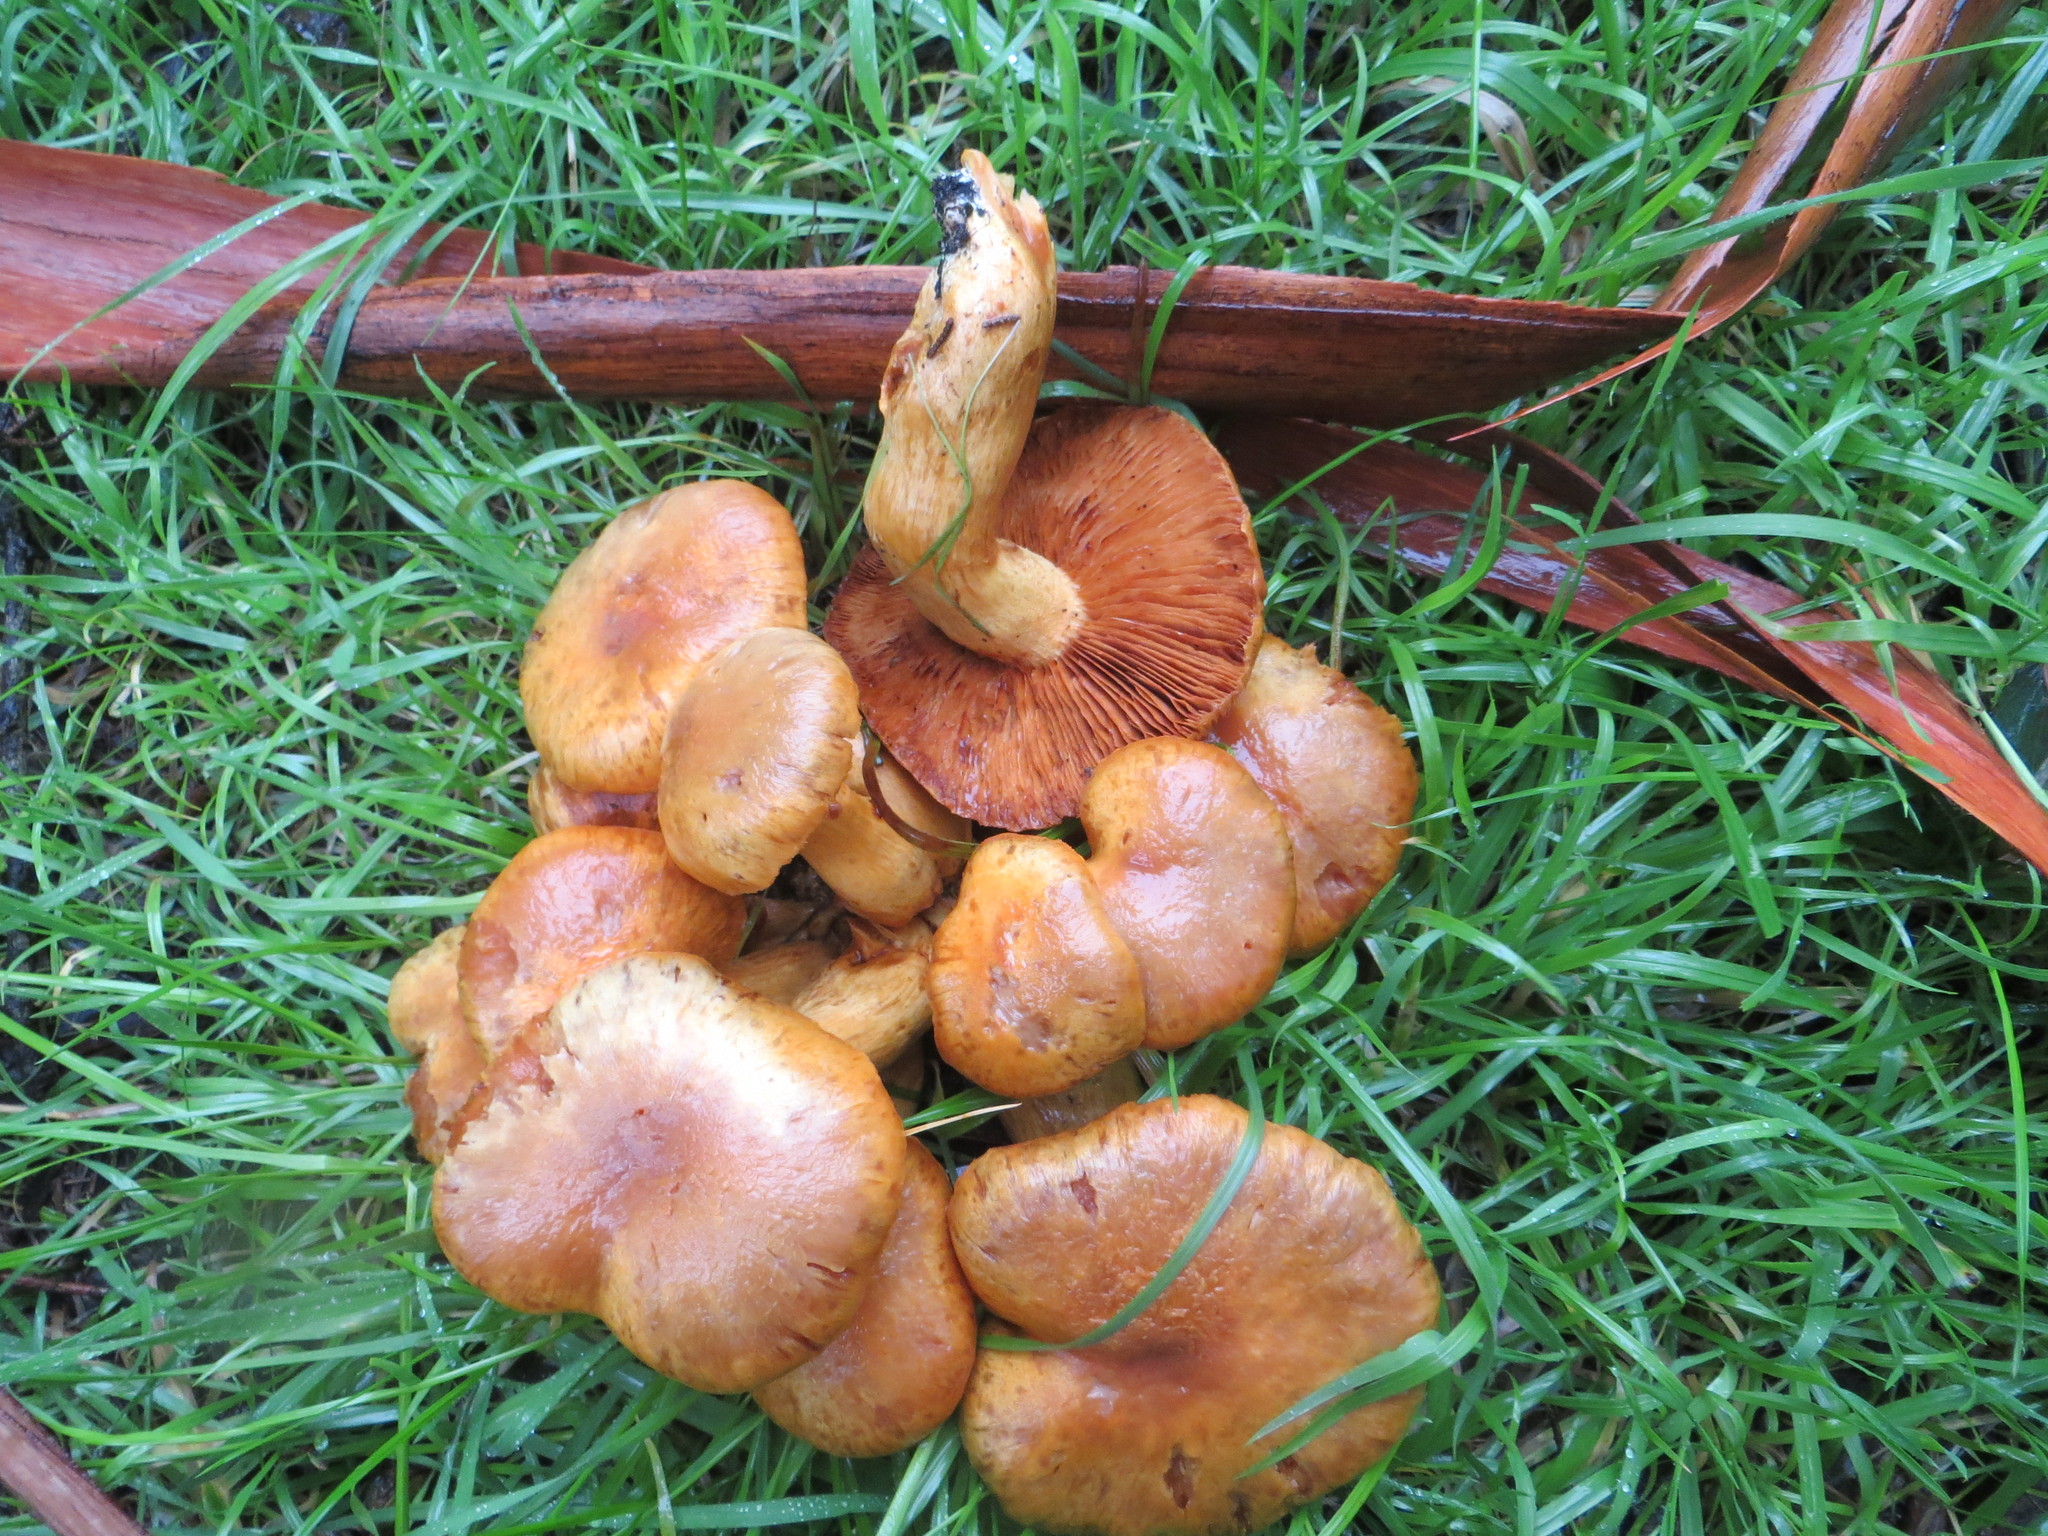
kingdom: Fungi
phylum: Basidiomycota
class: Agaricomycetes
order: Agaricales
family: Hymenogastraceae
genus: Gymnopilus
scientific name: Gymnopilus ventricosus
